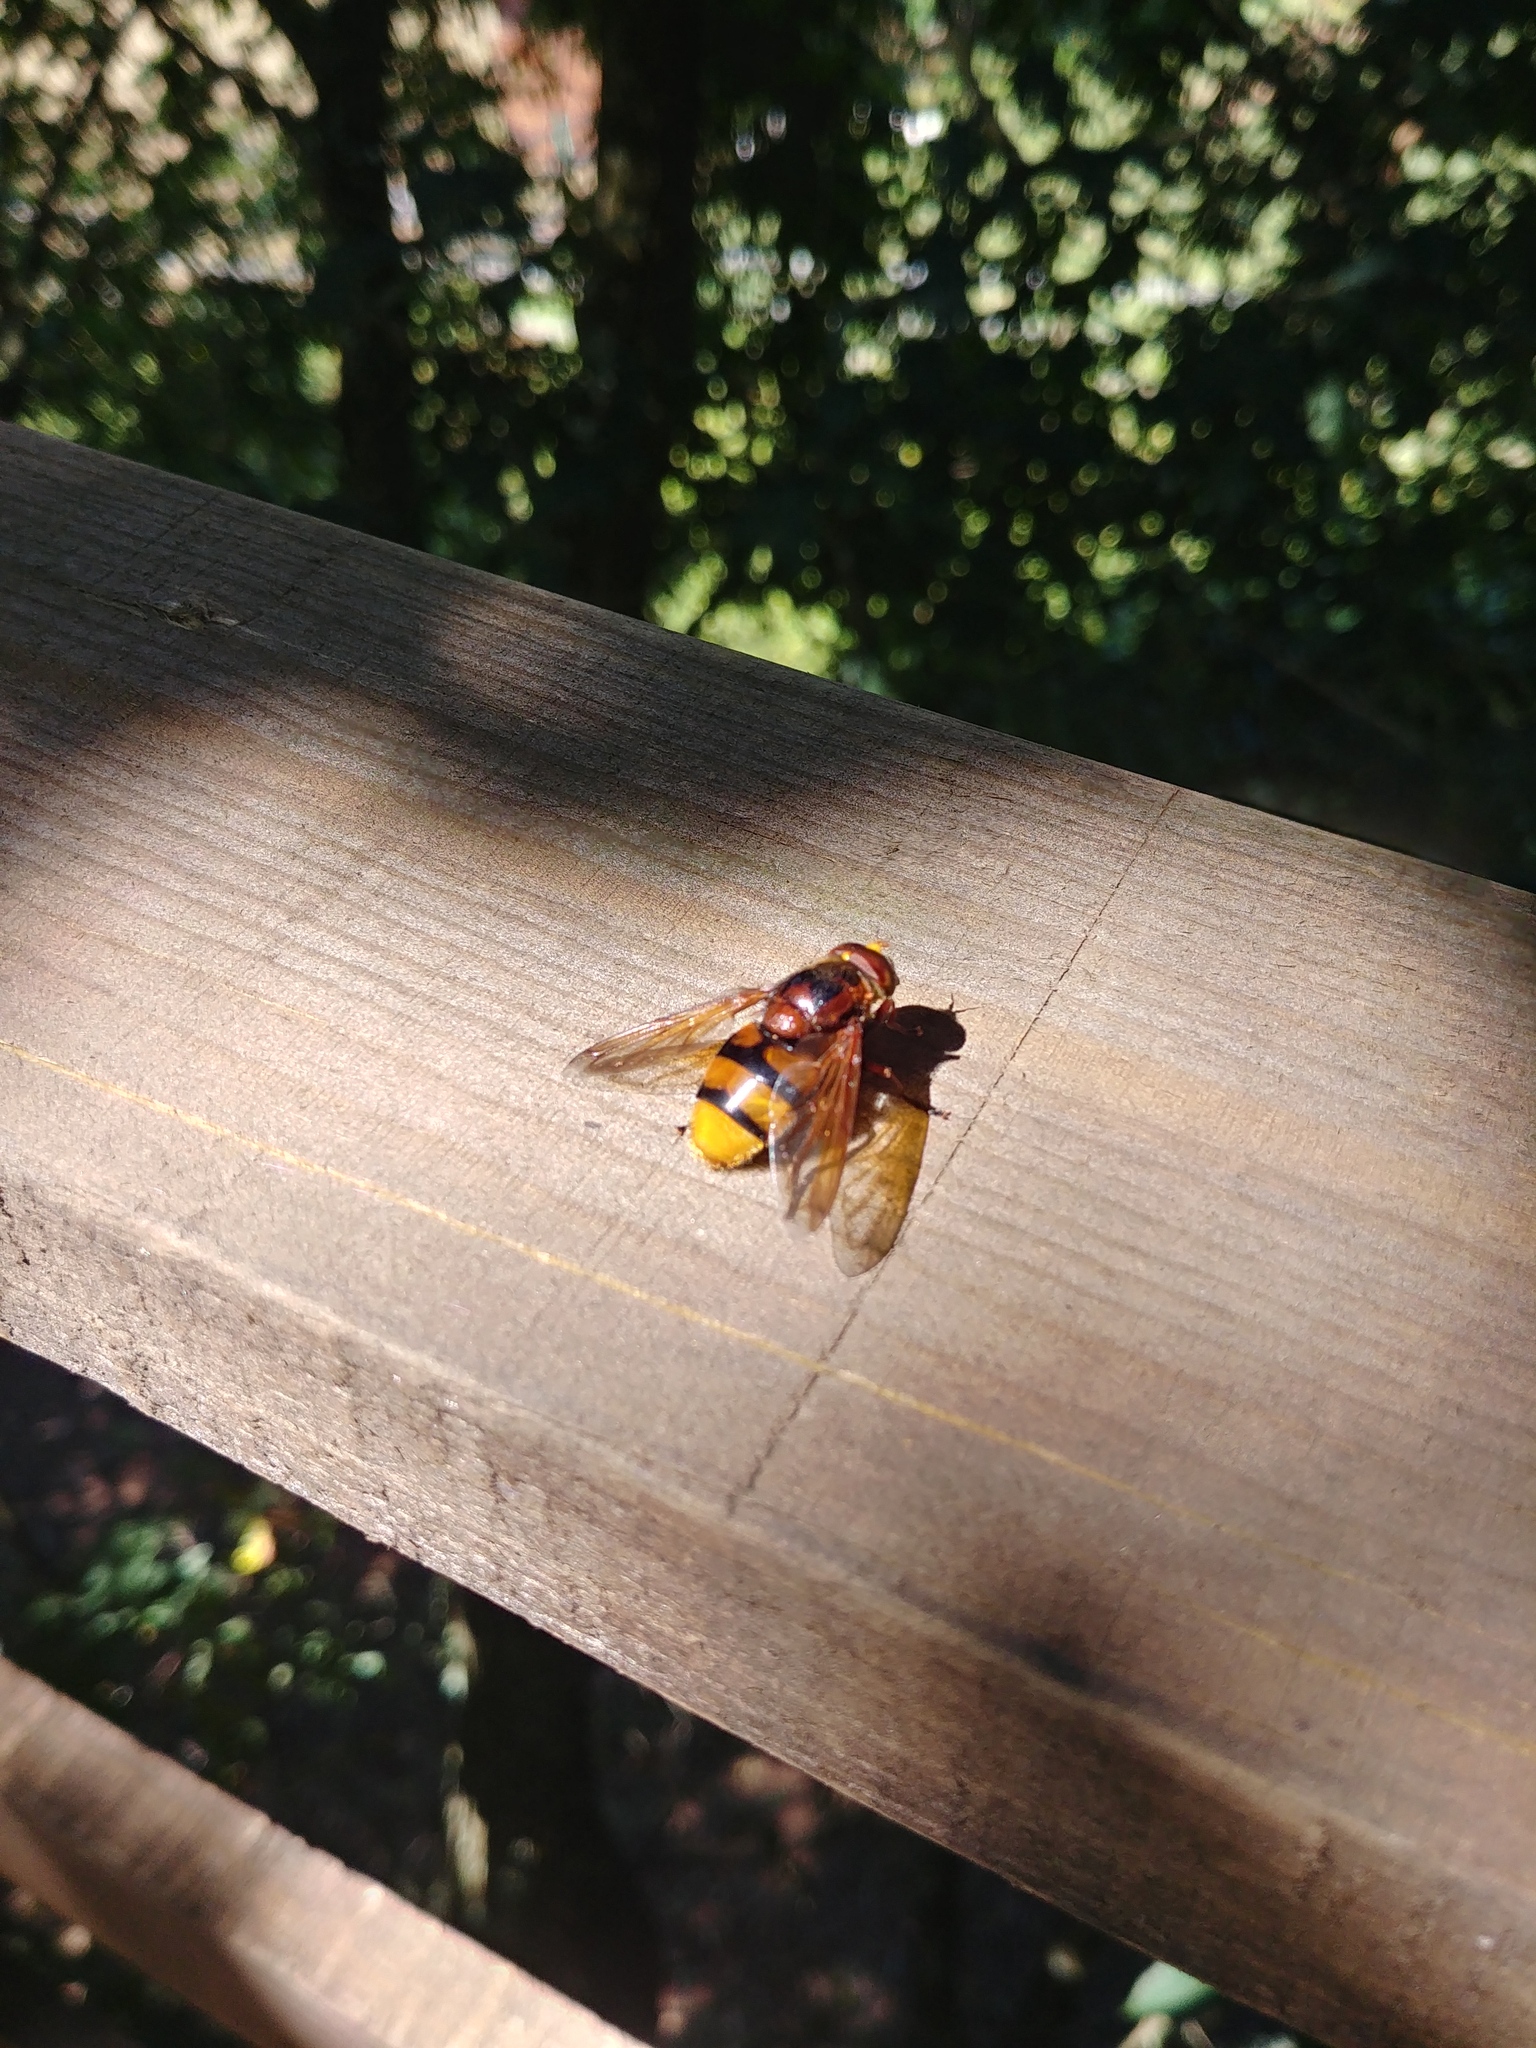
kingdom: Animalia
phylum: Arthropoda
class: Insecta
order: Diptera
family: Syrphidae
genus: Volucella
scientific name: Volucella zonaria
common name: Hornet hoverfly
